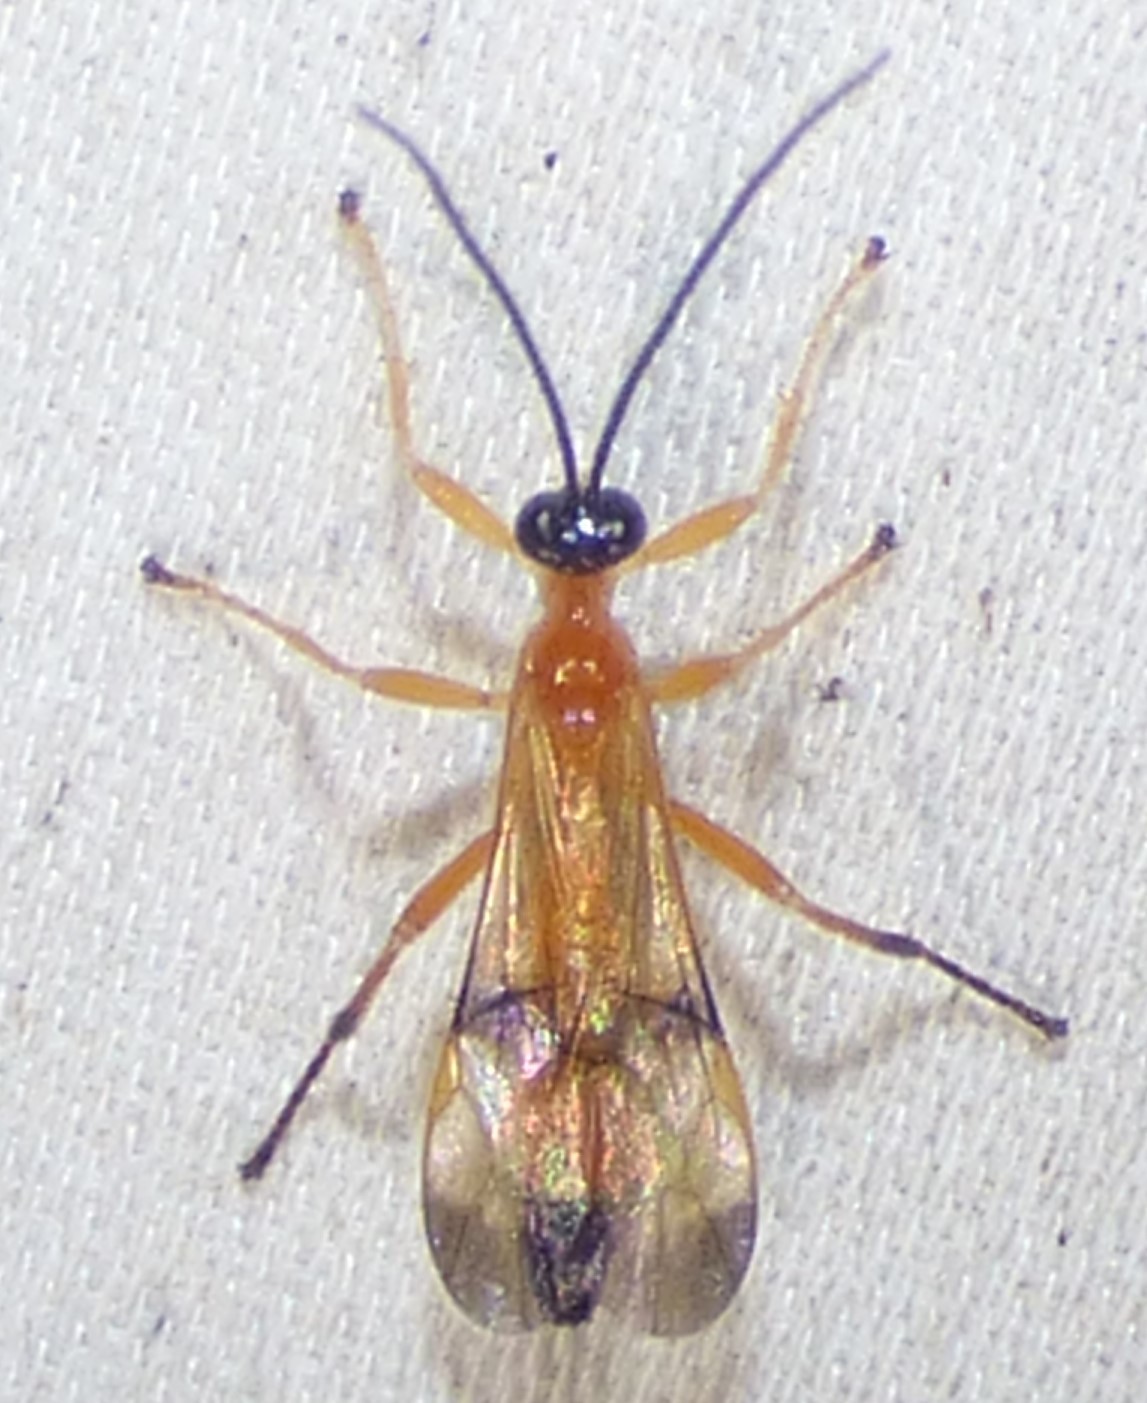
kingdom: Animalia
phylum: Arthropoda
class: Insecta
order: Hymenoptera
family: Ichneumonidae
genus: Acrotaphus
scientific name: Acrotaphus wiltii
